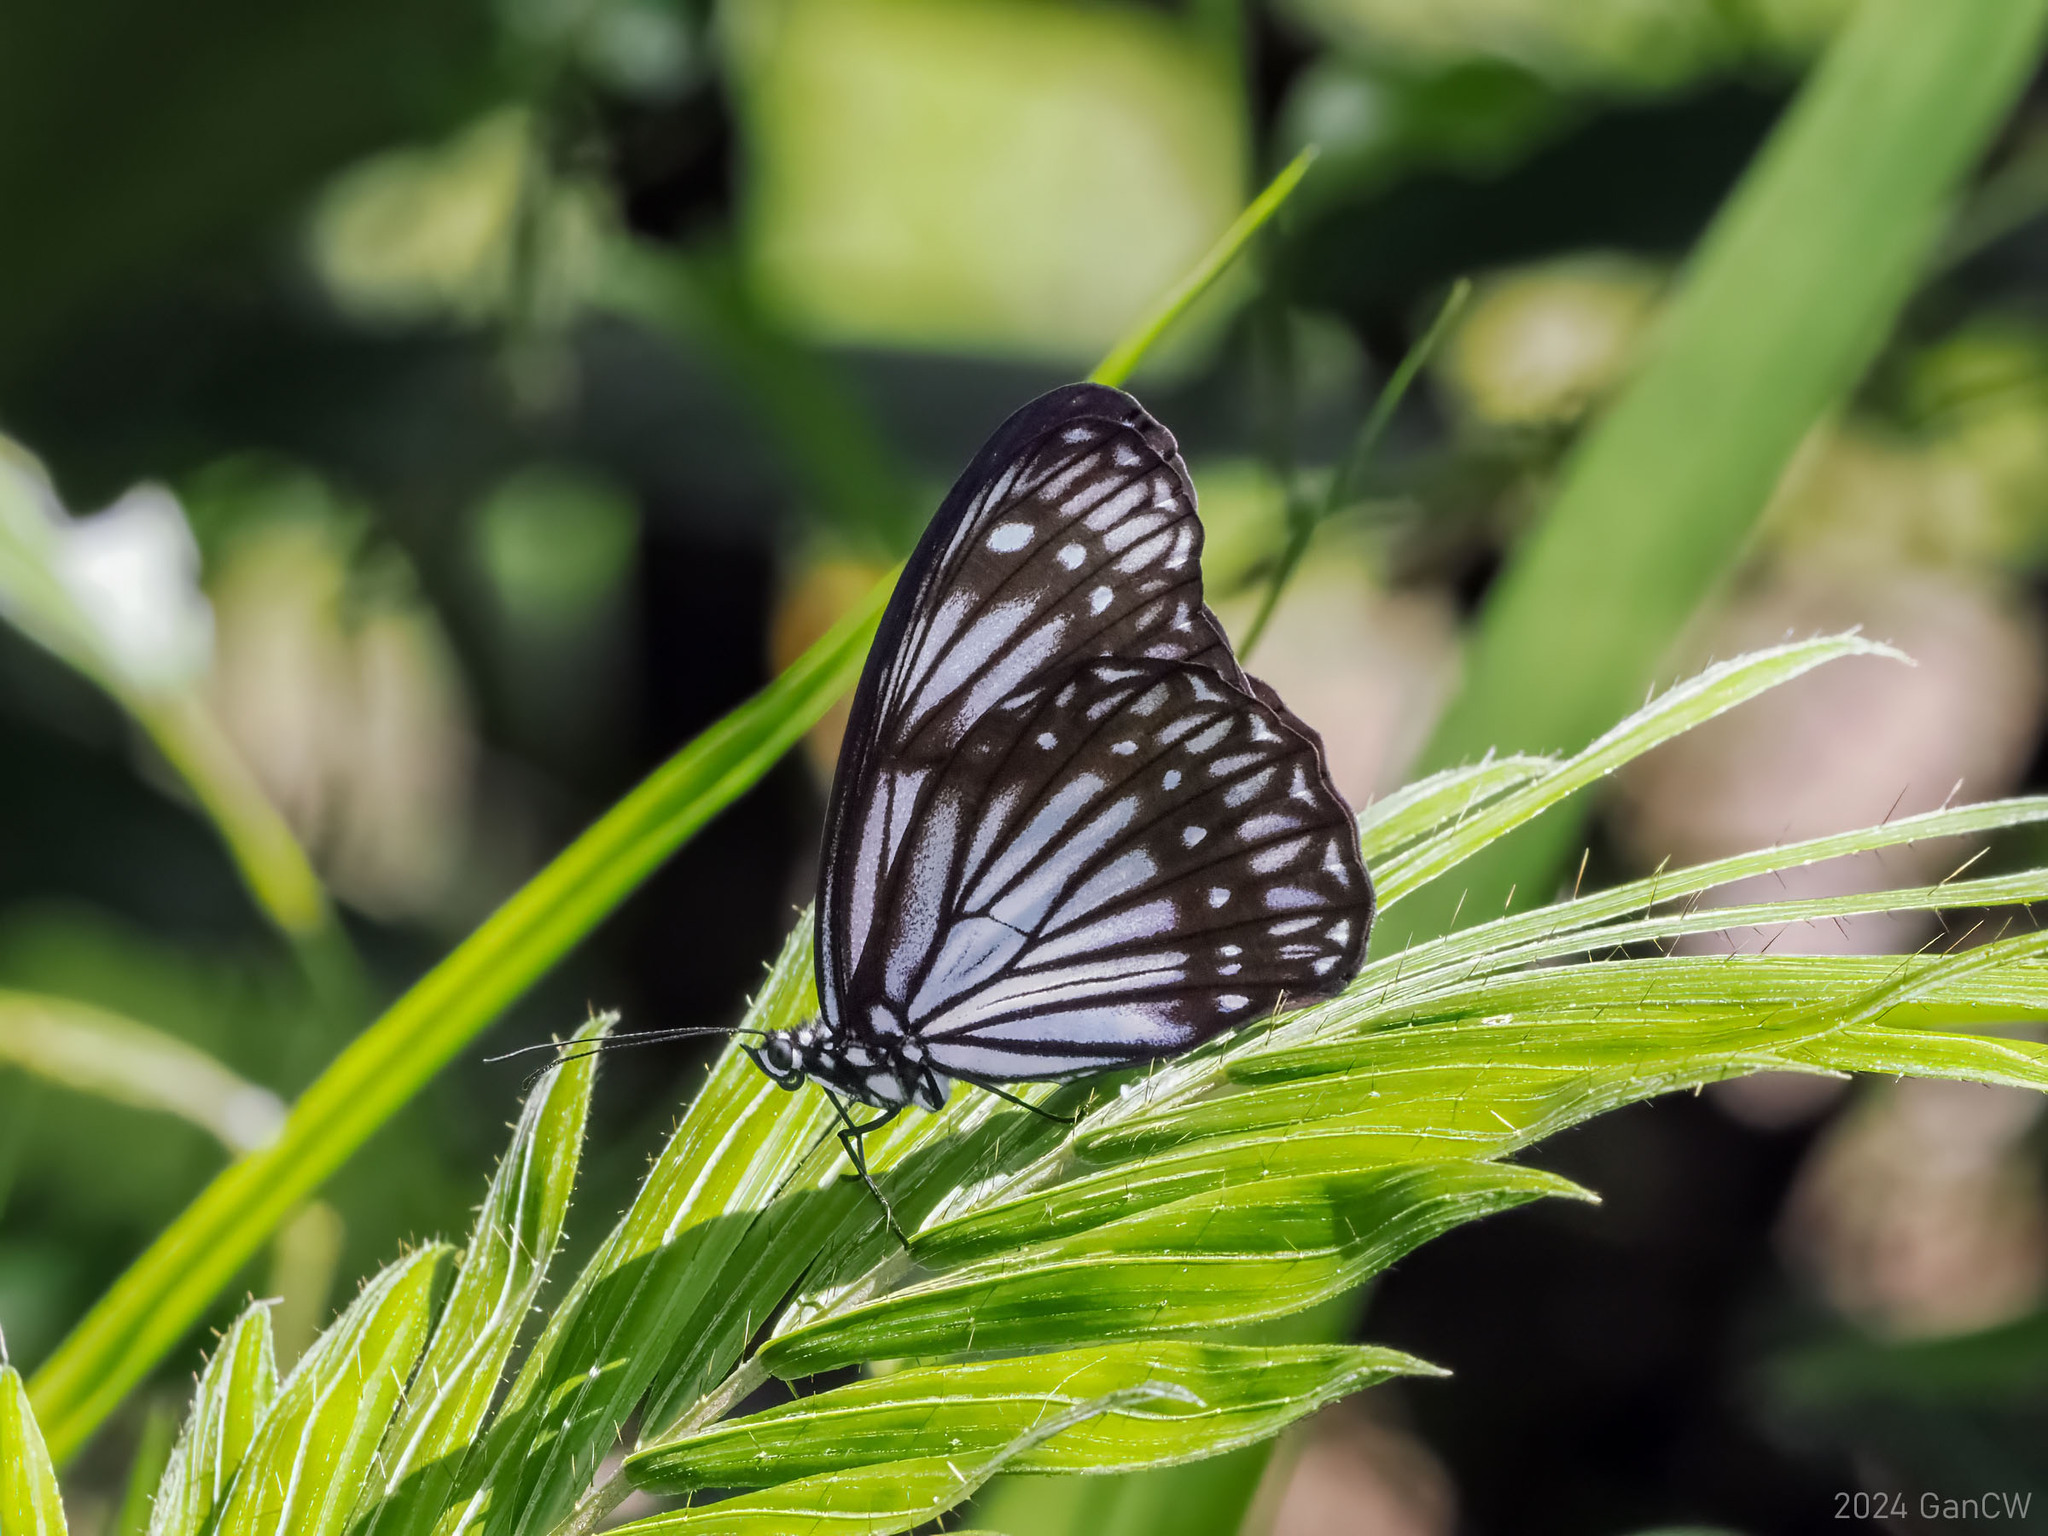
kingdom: Animalia
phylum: Arthropoda
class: Insecta
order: Lepidoptera
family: Nymphalidae
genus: Zethera
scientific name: Zethera pimplea
